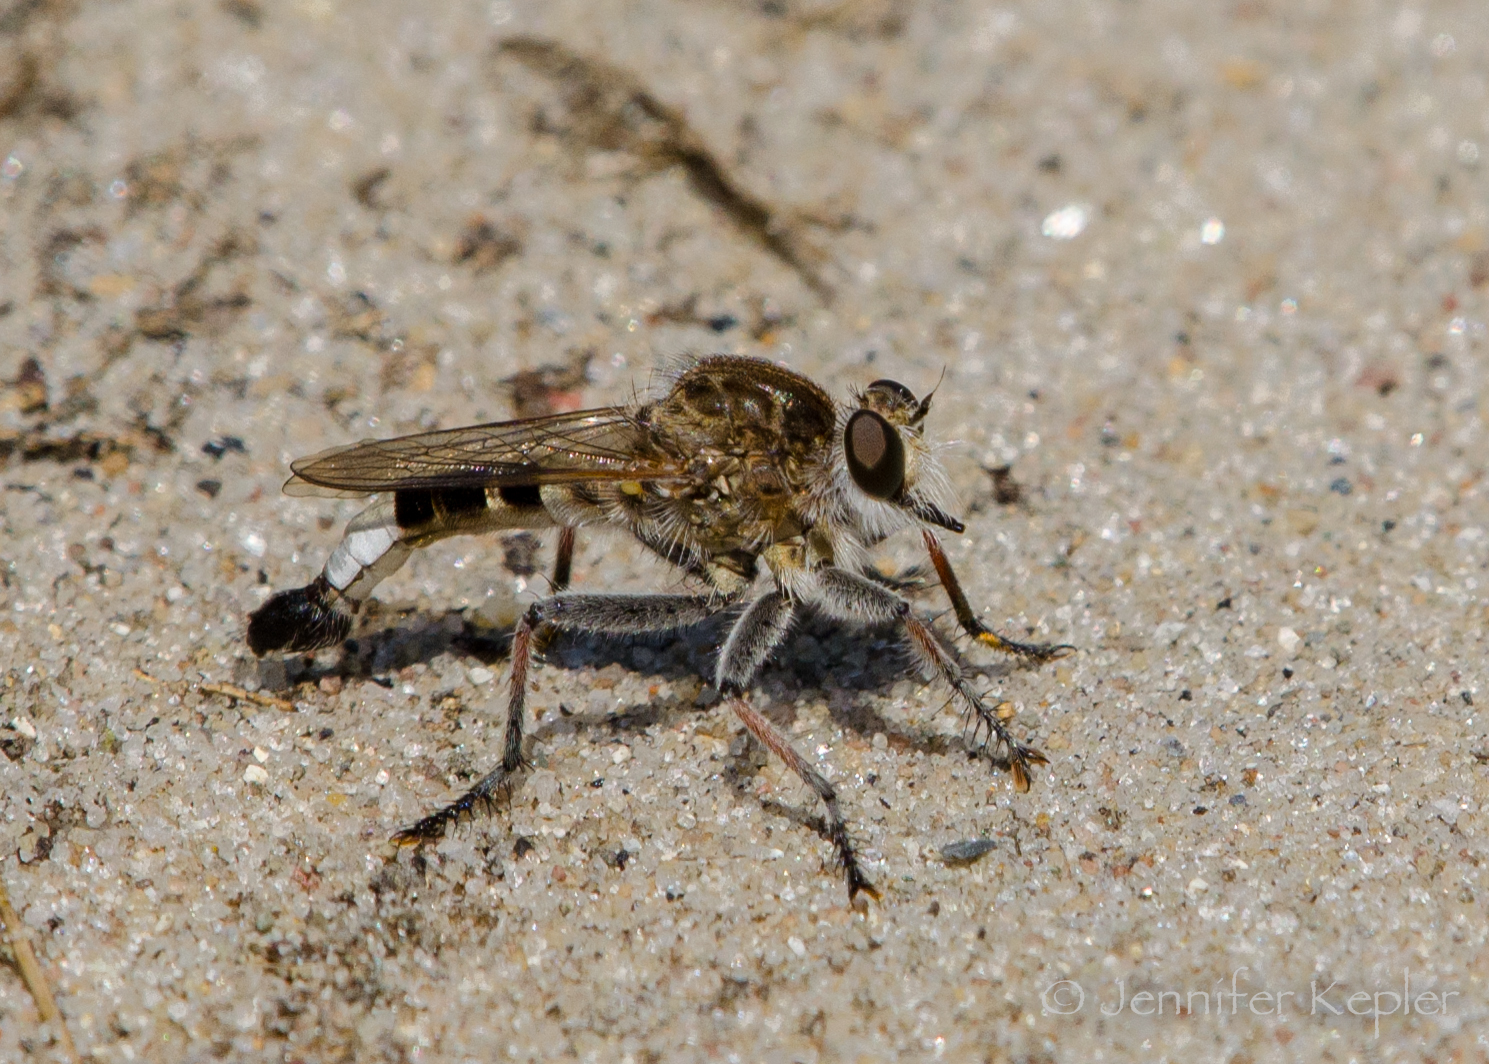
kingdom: Animalia
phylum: Arthropoda
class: Insecta
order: Diptera
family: Asilidae
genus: Efferia
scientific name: Efferia albibarbis
